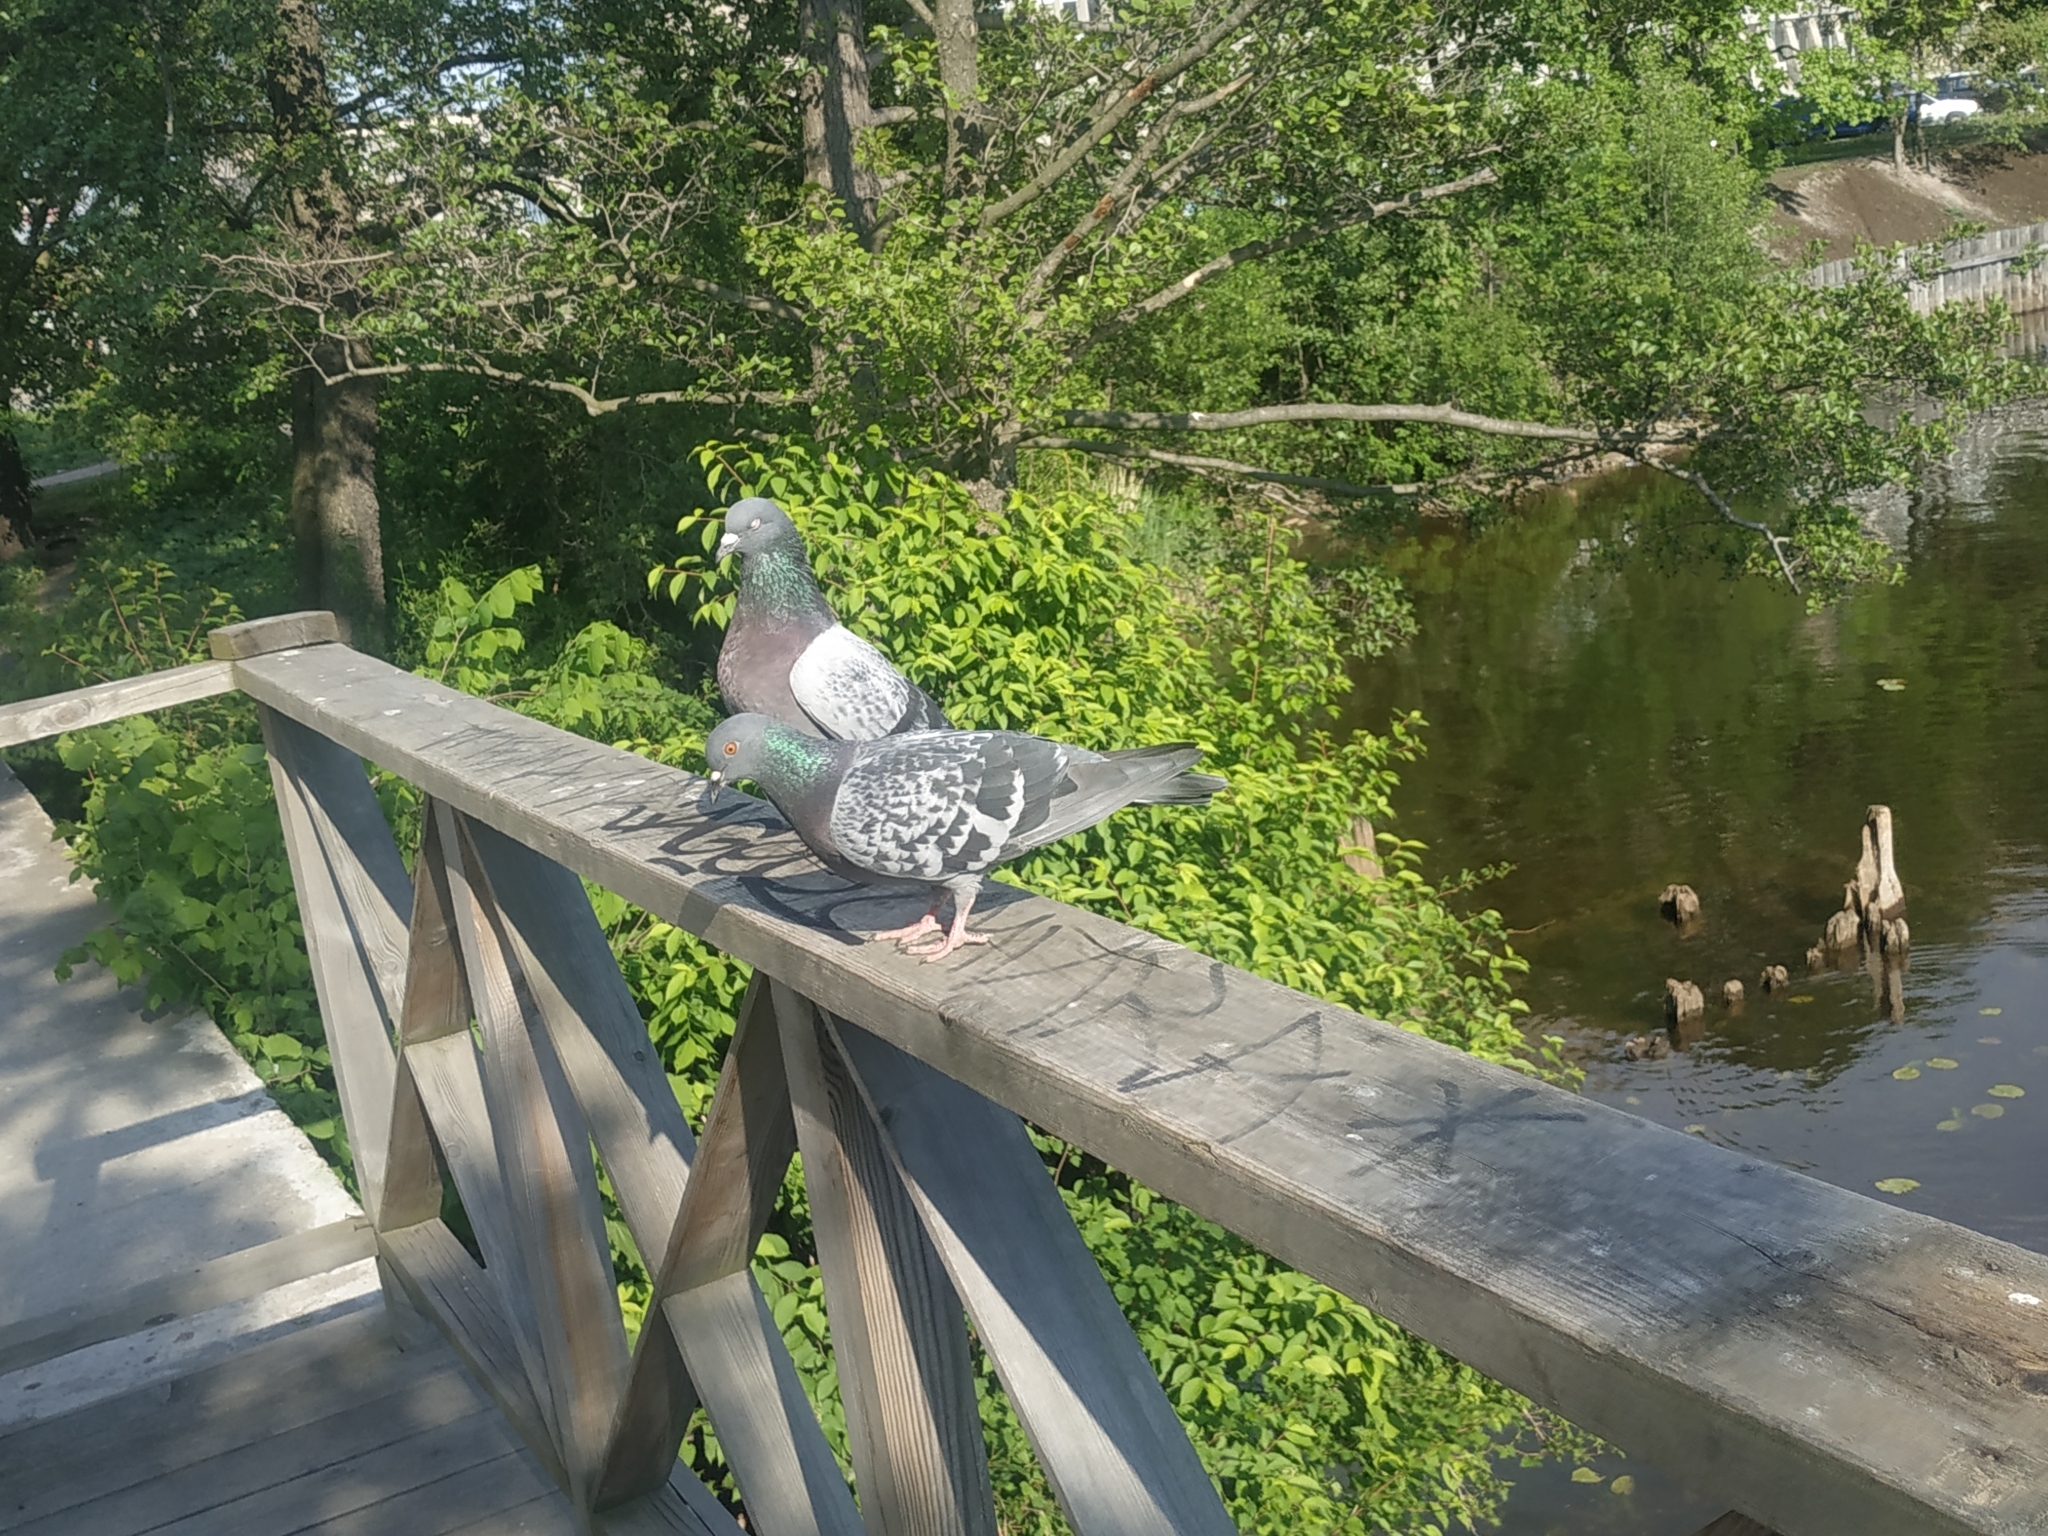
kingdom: Animalia
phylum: Chordata
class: Aves
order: Columbiformes
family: Columbidae
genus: Columba
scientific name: Columba livia
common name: Rock pigeon
